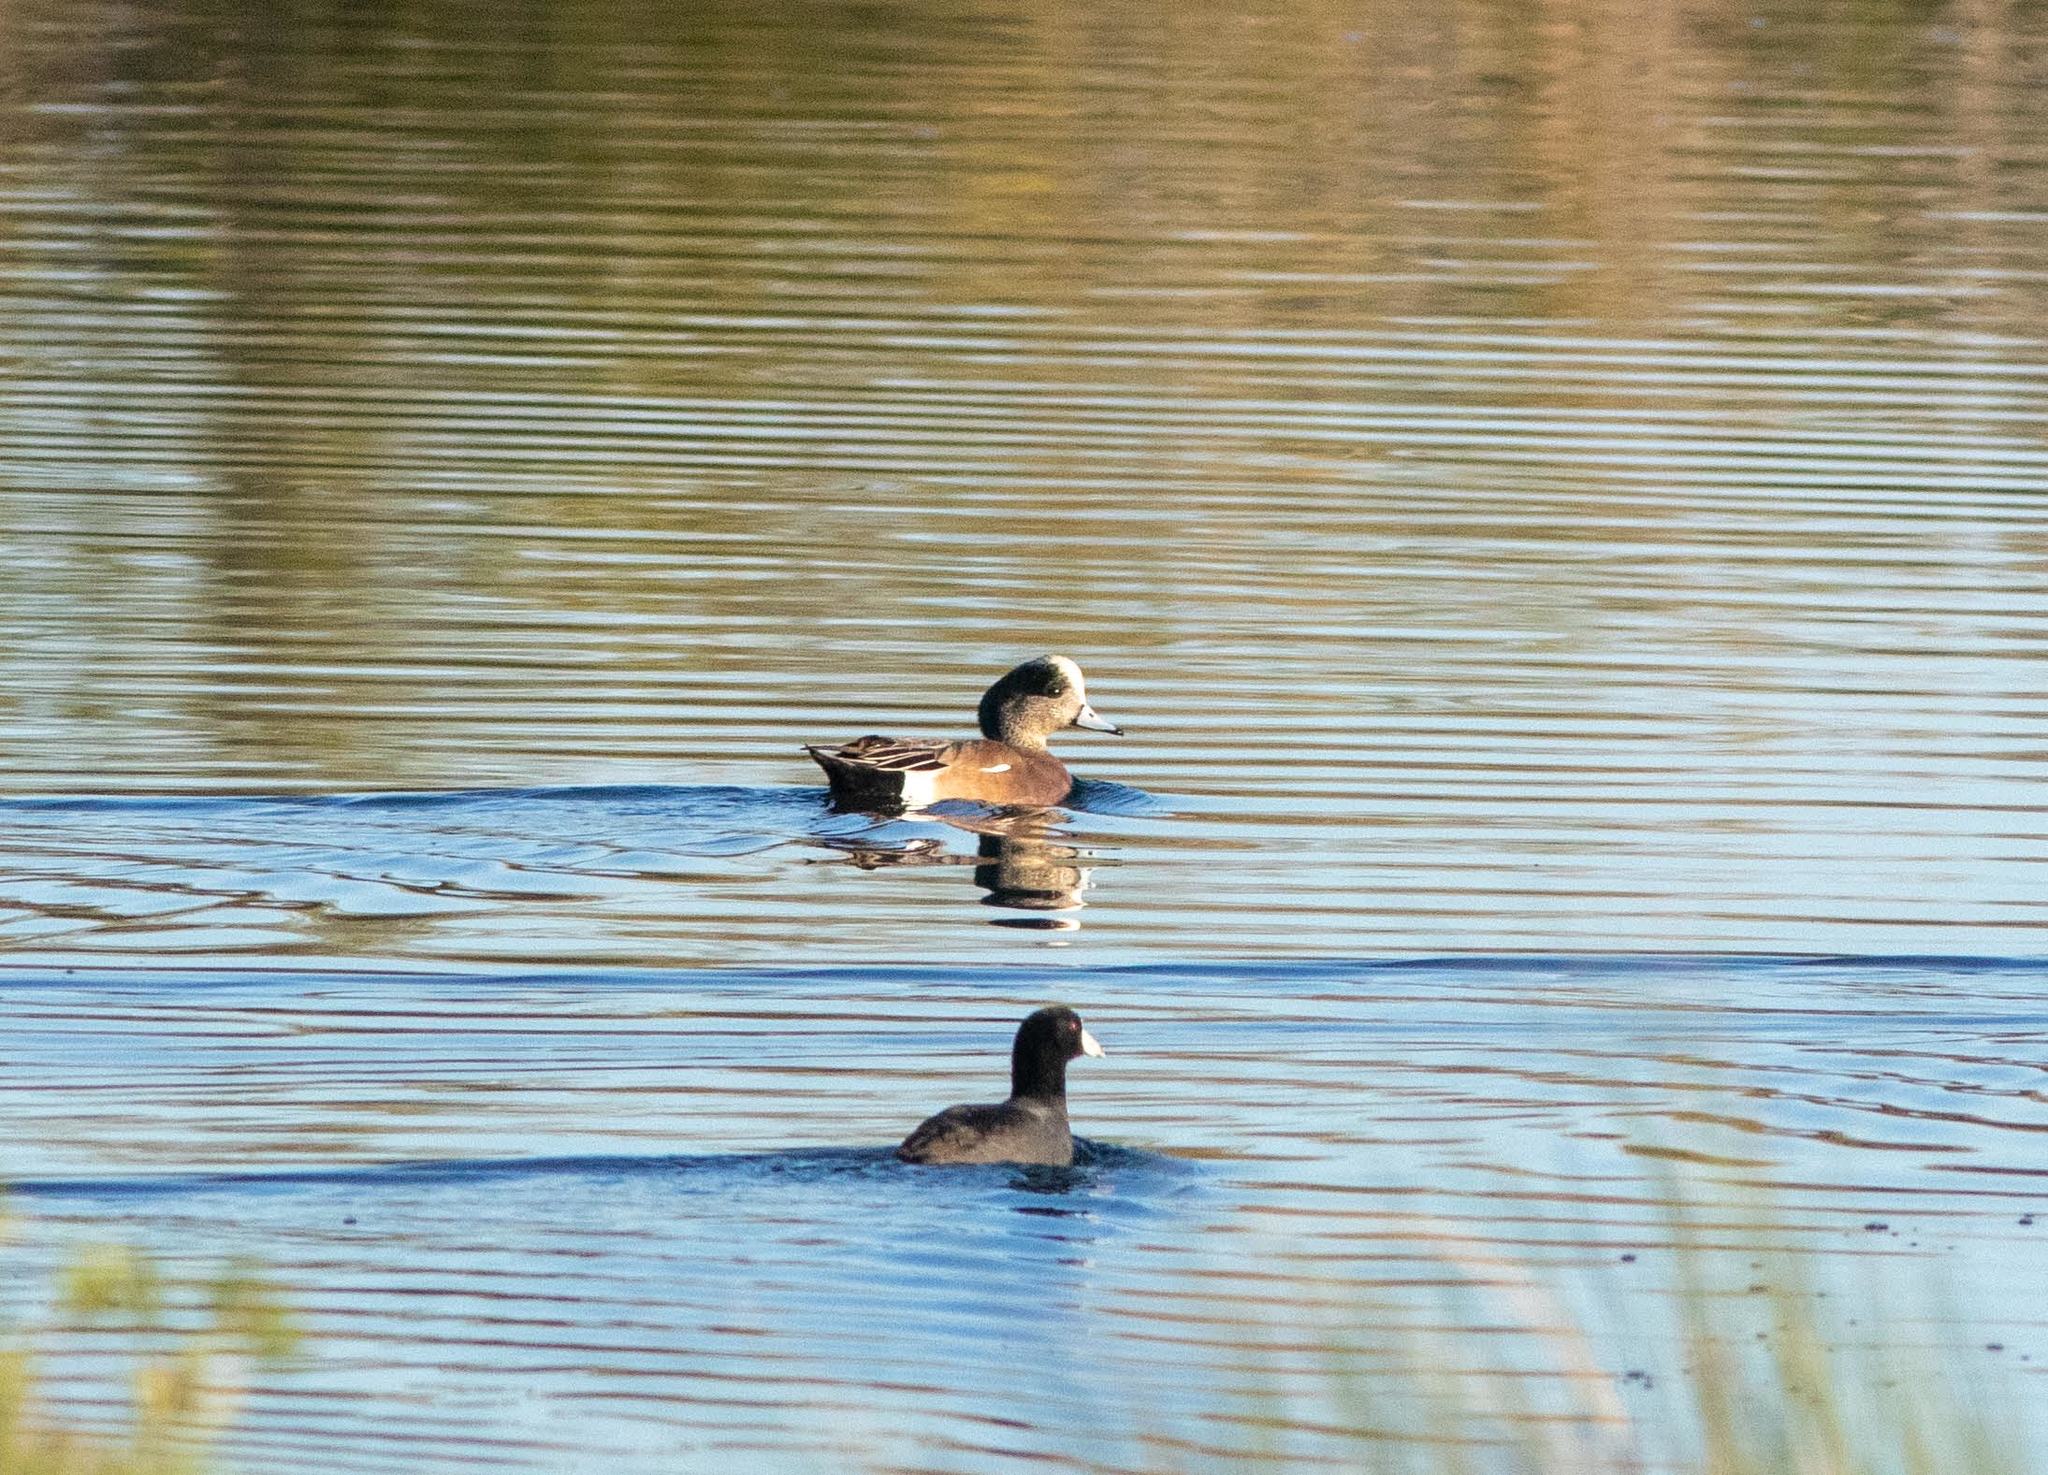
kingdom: Animalia
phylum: Chordata
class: Aves
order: Anseriformes
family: Anatidae
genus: Mareca
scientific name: Mareca americana
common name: American wigeon
